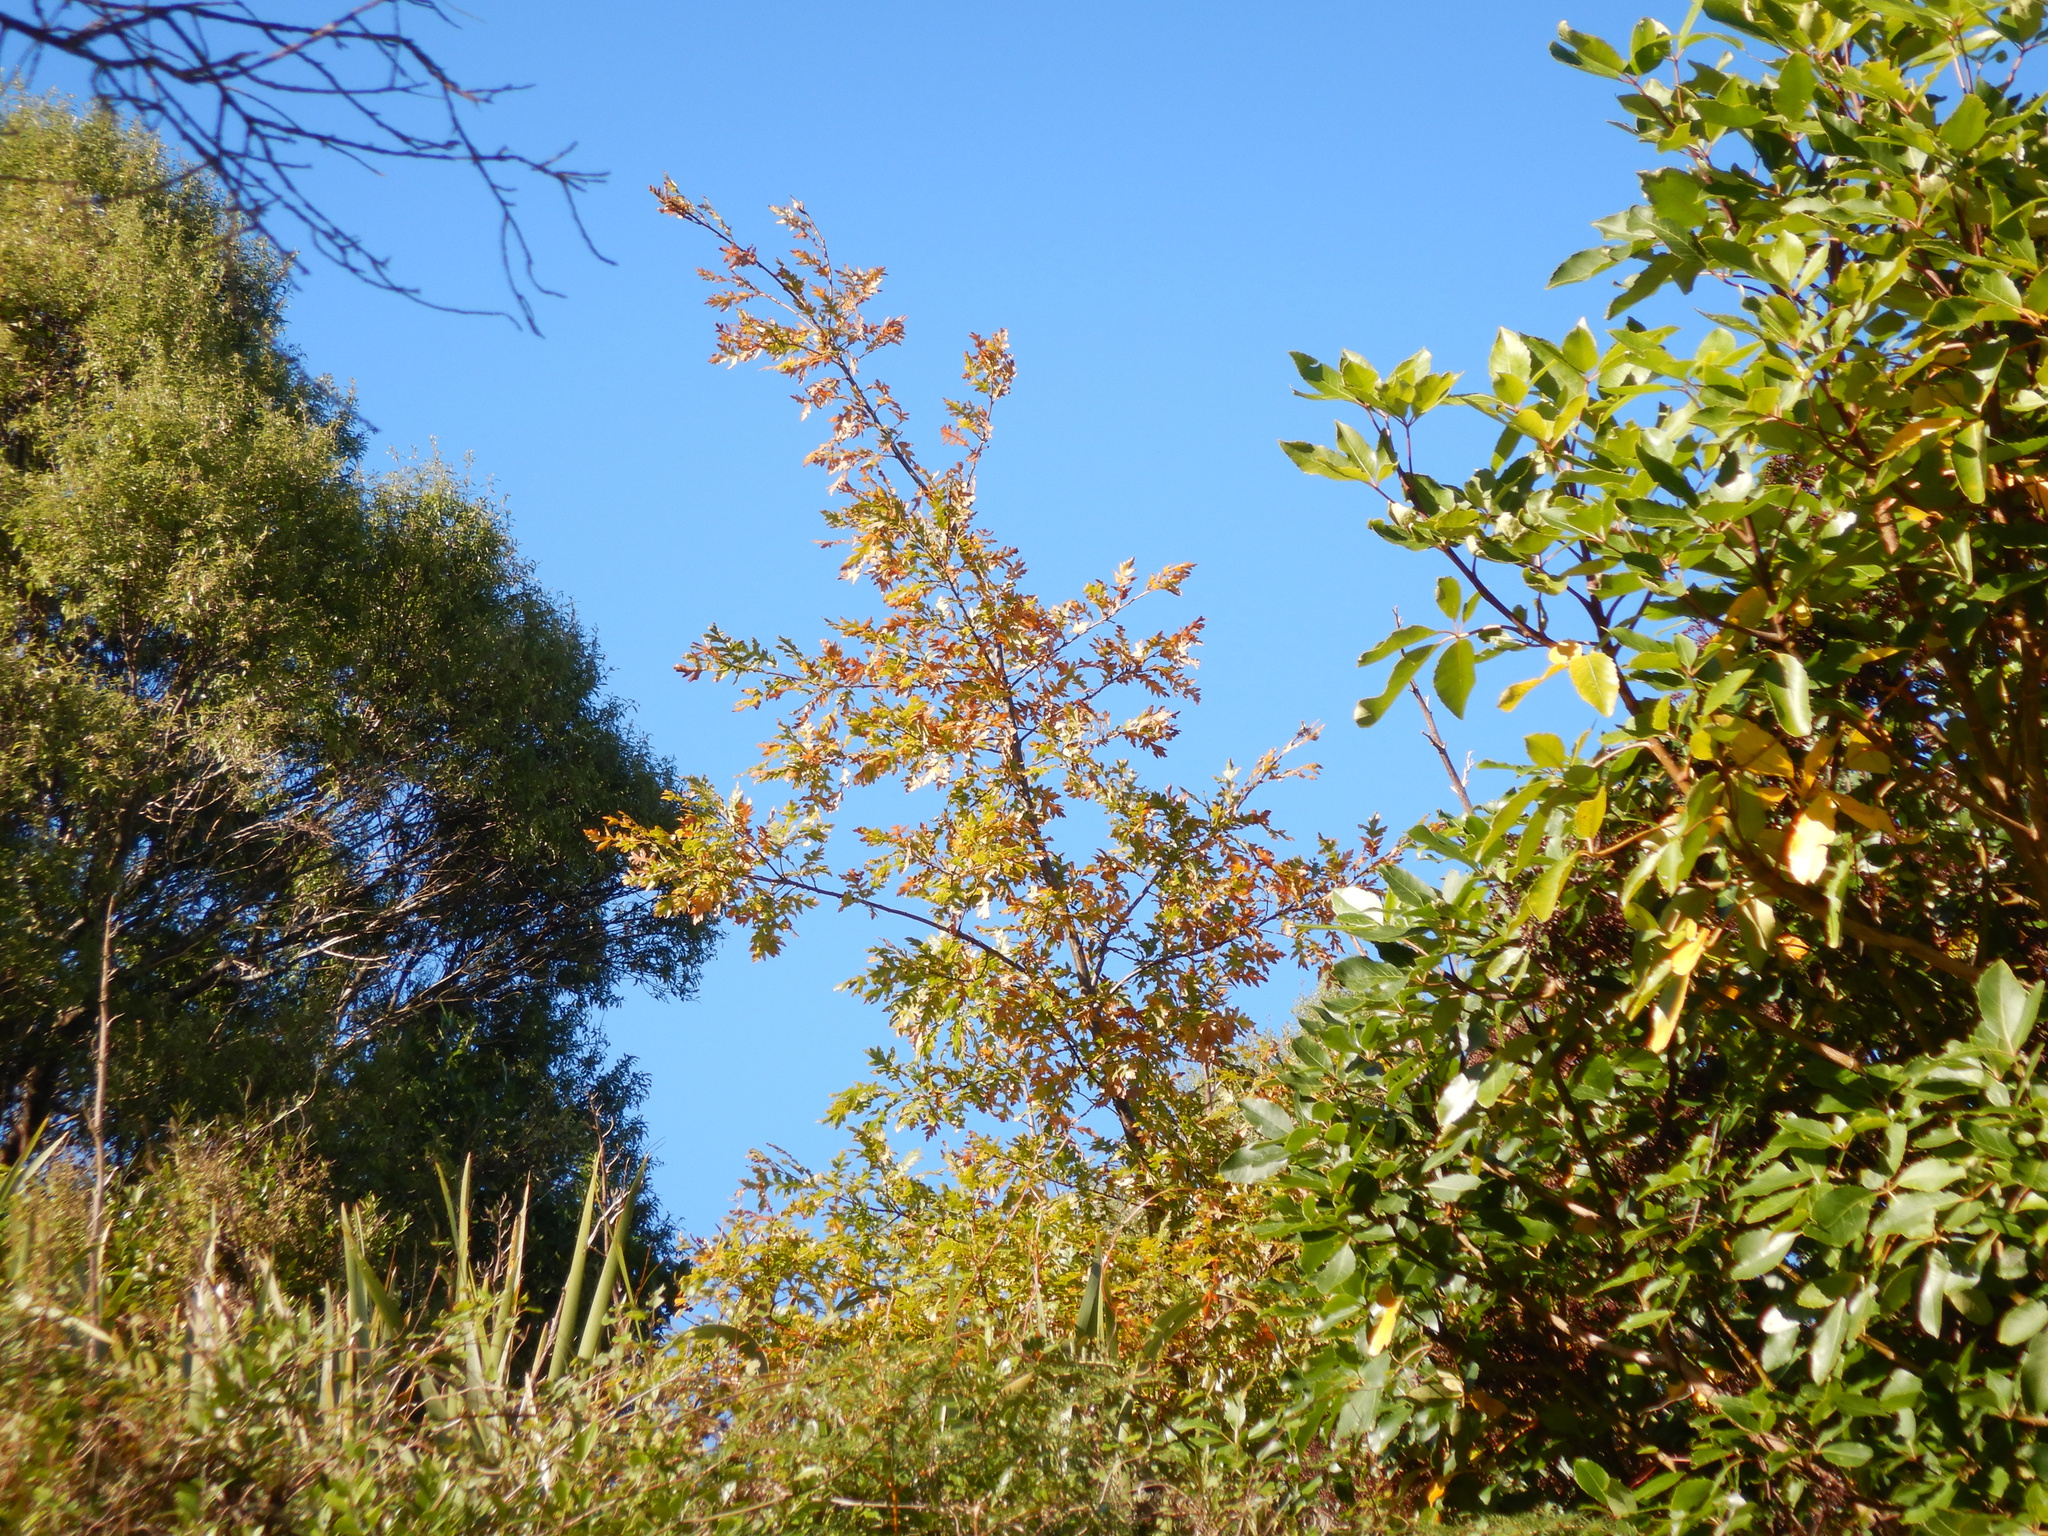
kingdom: Plantae
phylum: Tracheophyta
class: Magnoliopsida
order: Fagales
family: Fagaceae
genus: Quercus
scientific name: Quercus robur
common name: Pedunculate oak
